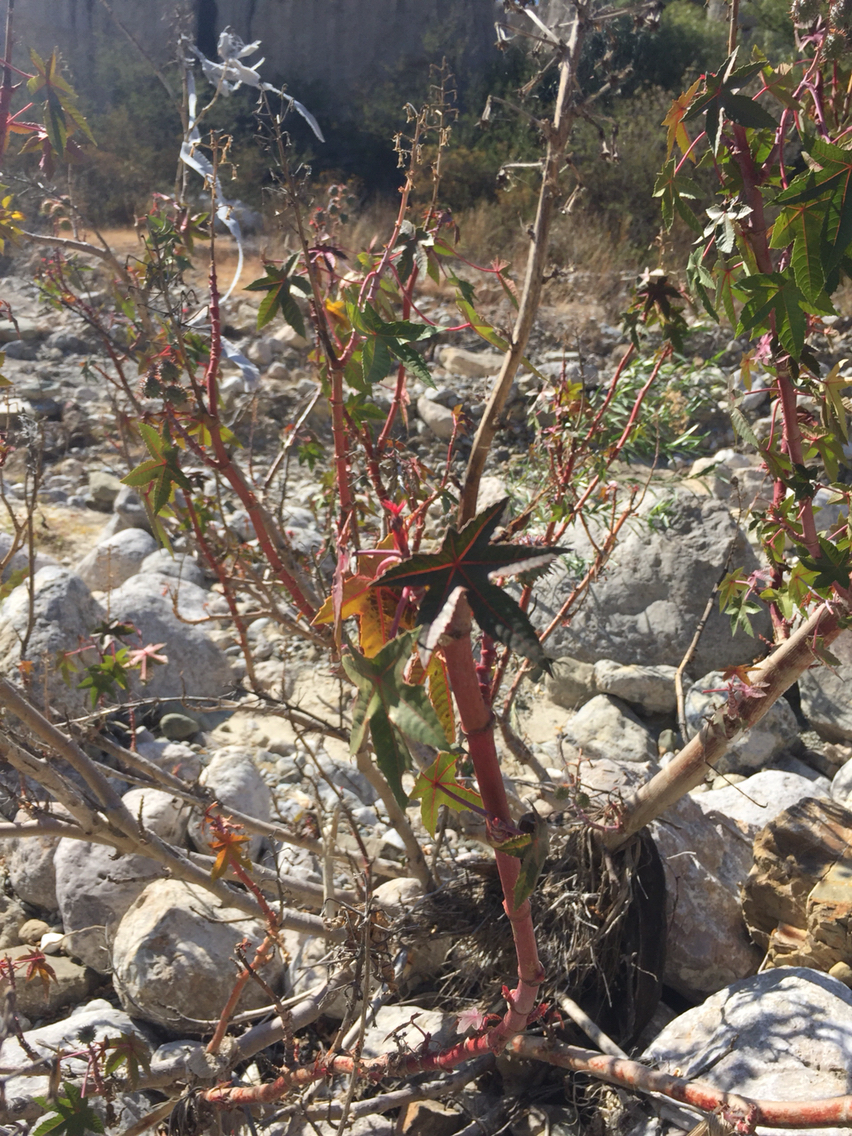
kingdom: Plantae
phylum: Tracheophyta
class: Magnoliopsida
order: Malpighiales
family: Euphorbiaceae
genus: Ricinus
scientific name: Ricinus communis
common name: Castor-oil-plant
